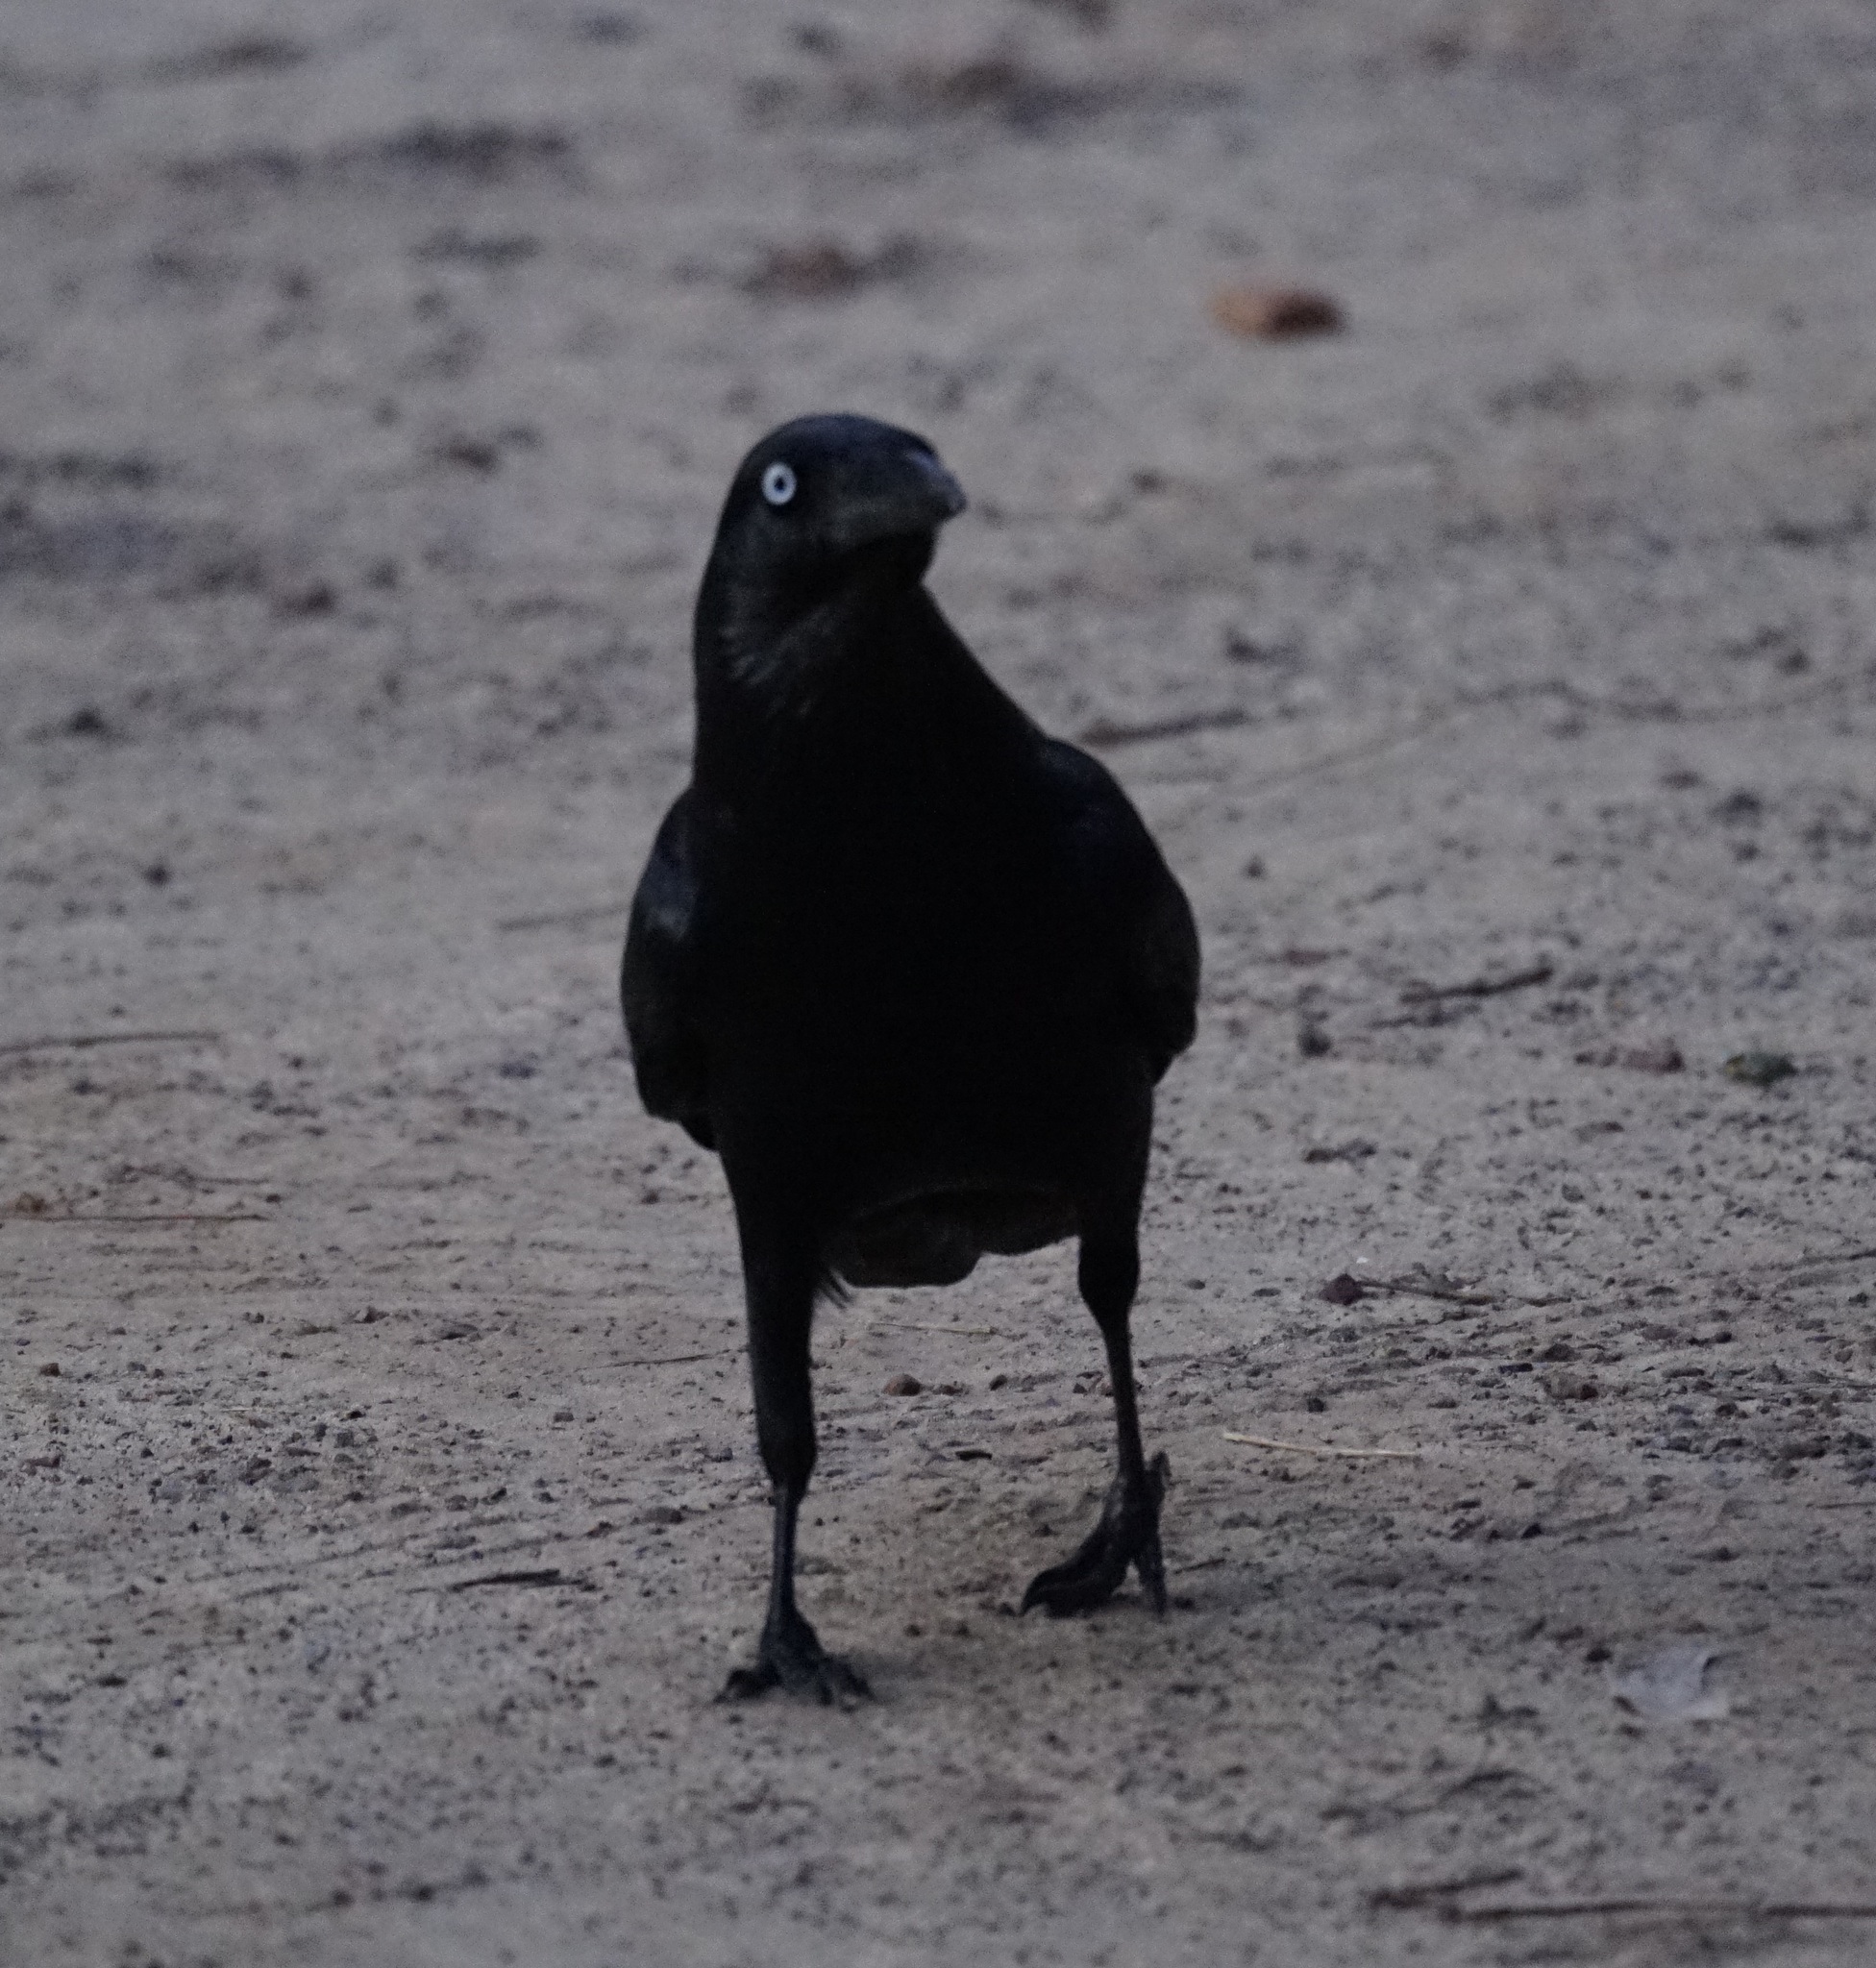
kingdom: Animalia
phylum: Chordata
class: Aves
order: Passeriformes
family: Corvidae
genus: Corvus
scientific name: Corvus coronoides
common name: Australian raven
